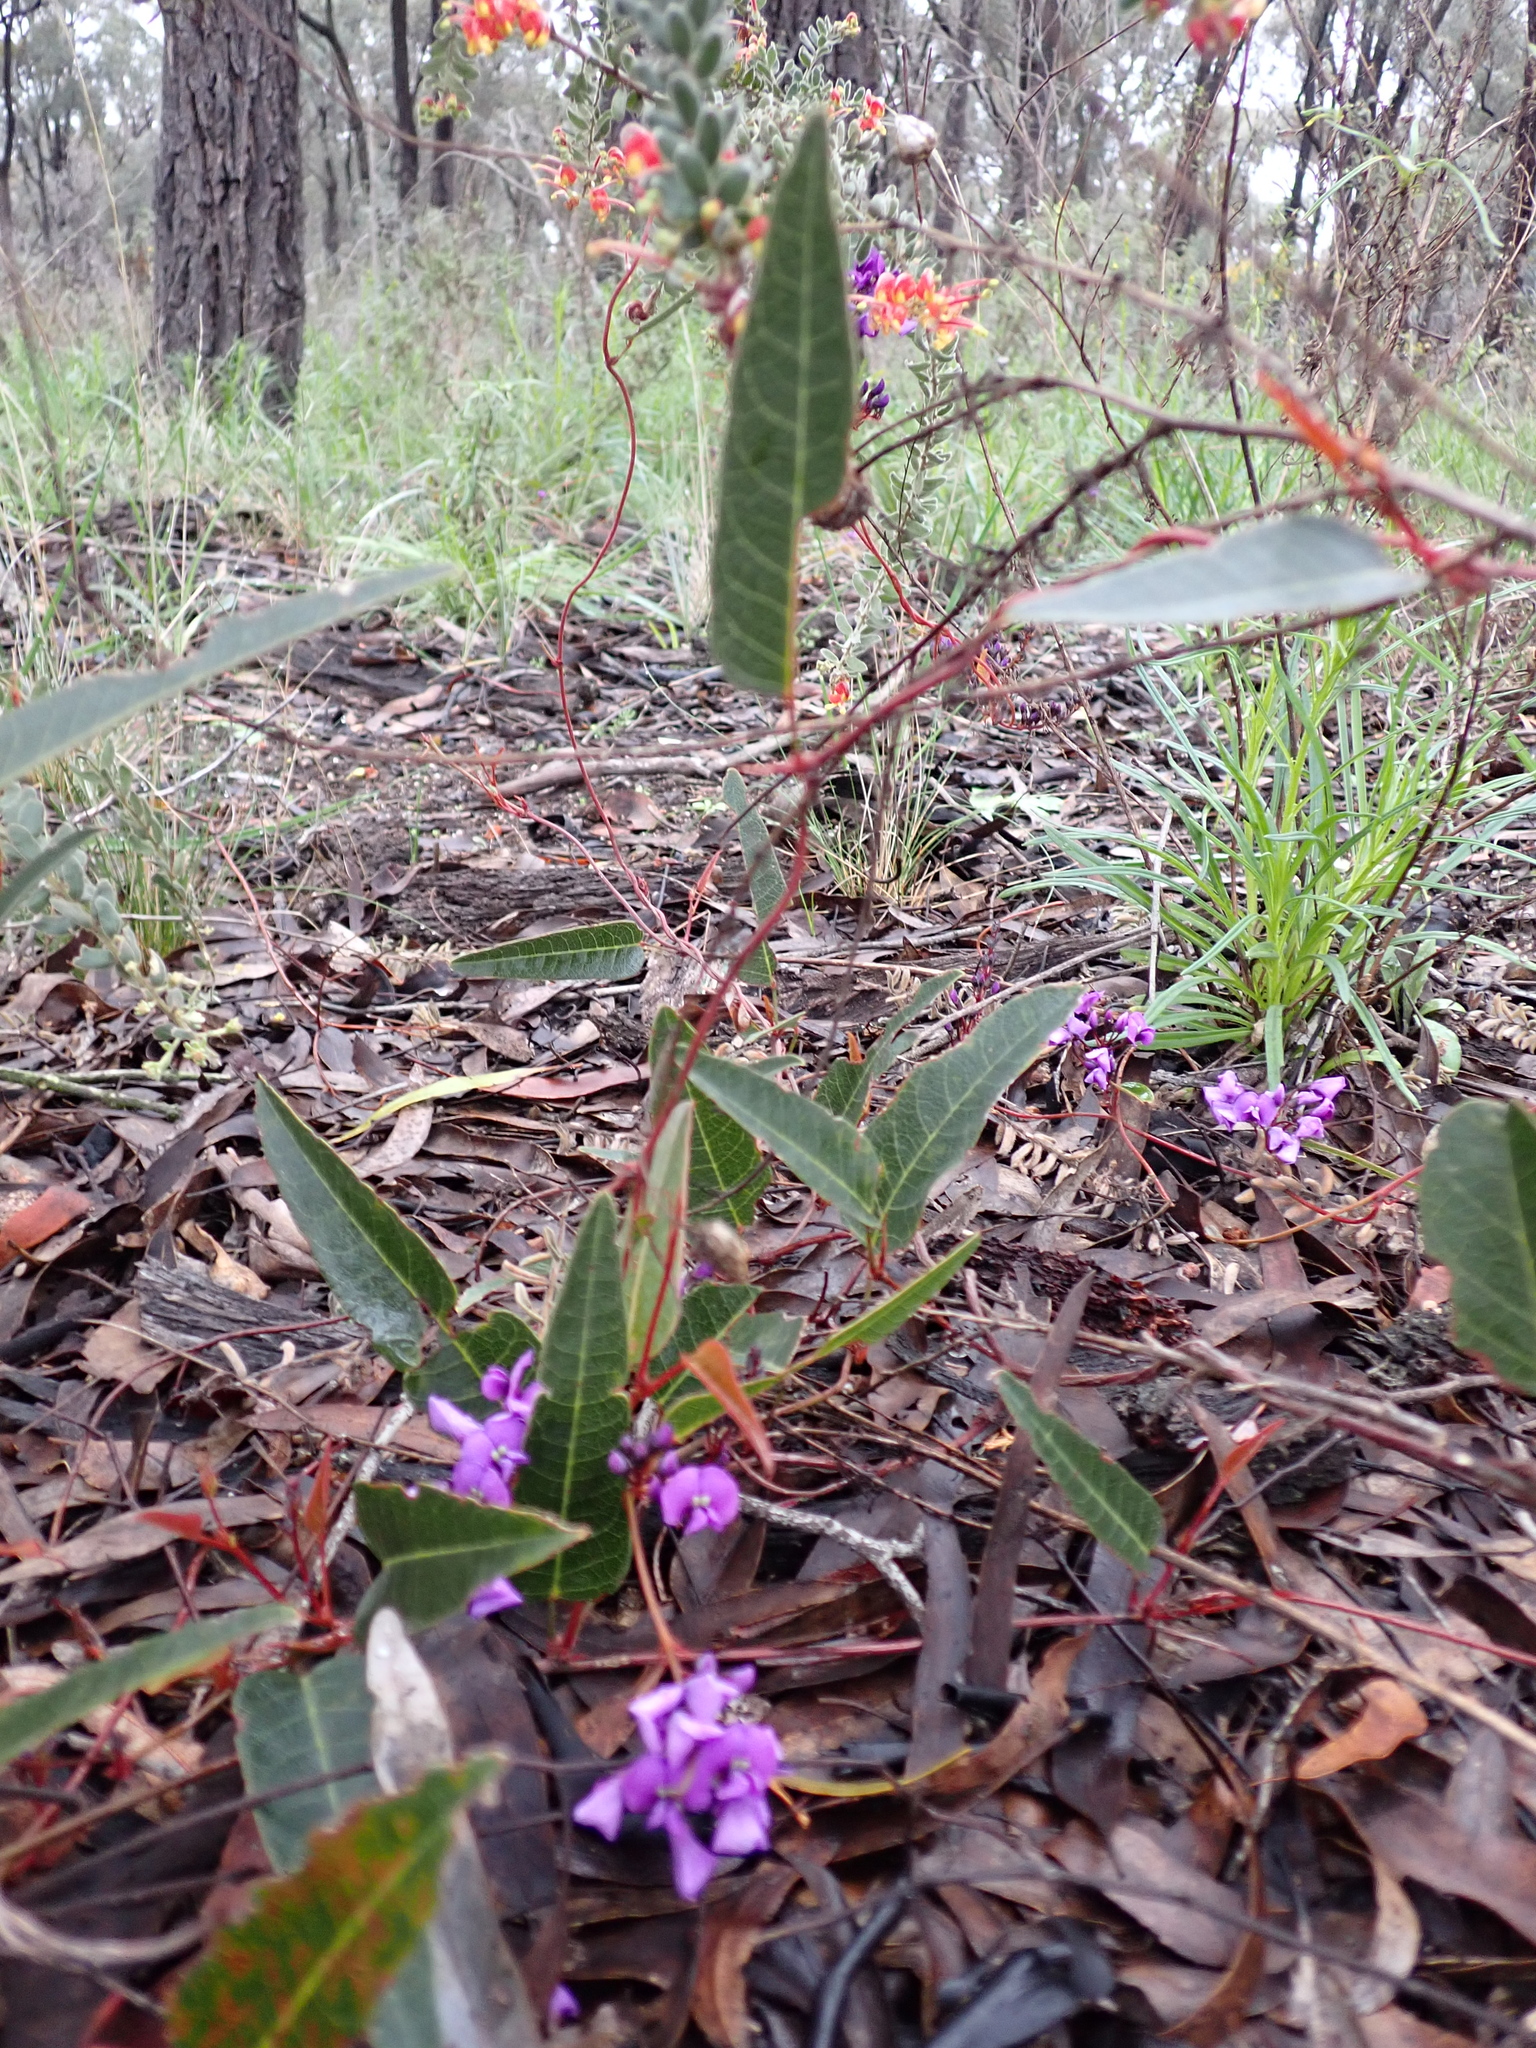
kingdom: Plantae
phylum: Tracheophyta
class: Magnoliopsida
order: Fabales
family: Fabaceae
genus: Hardenbergia
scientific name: Hardenbergia violacea
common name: Coral-pea
